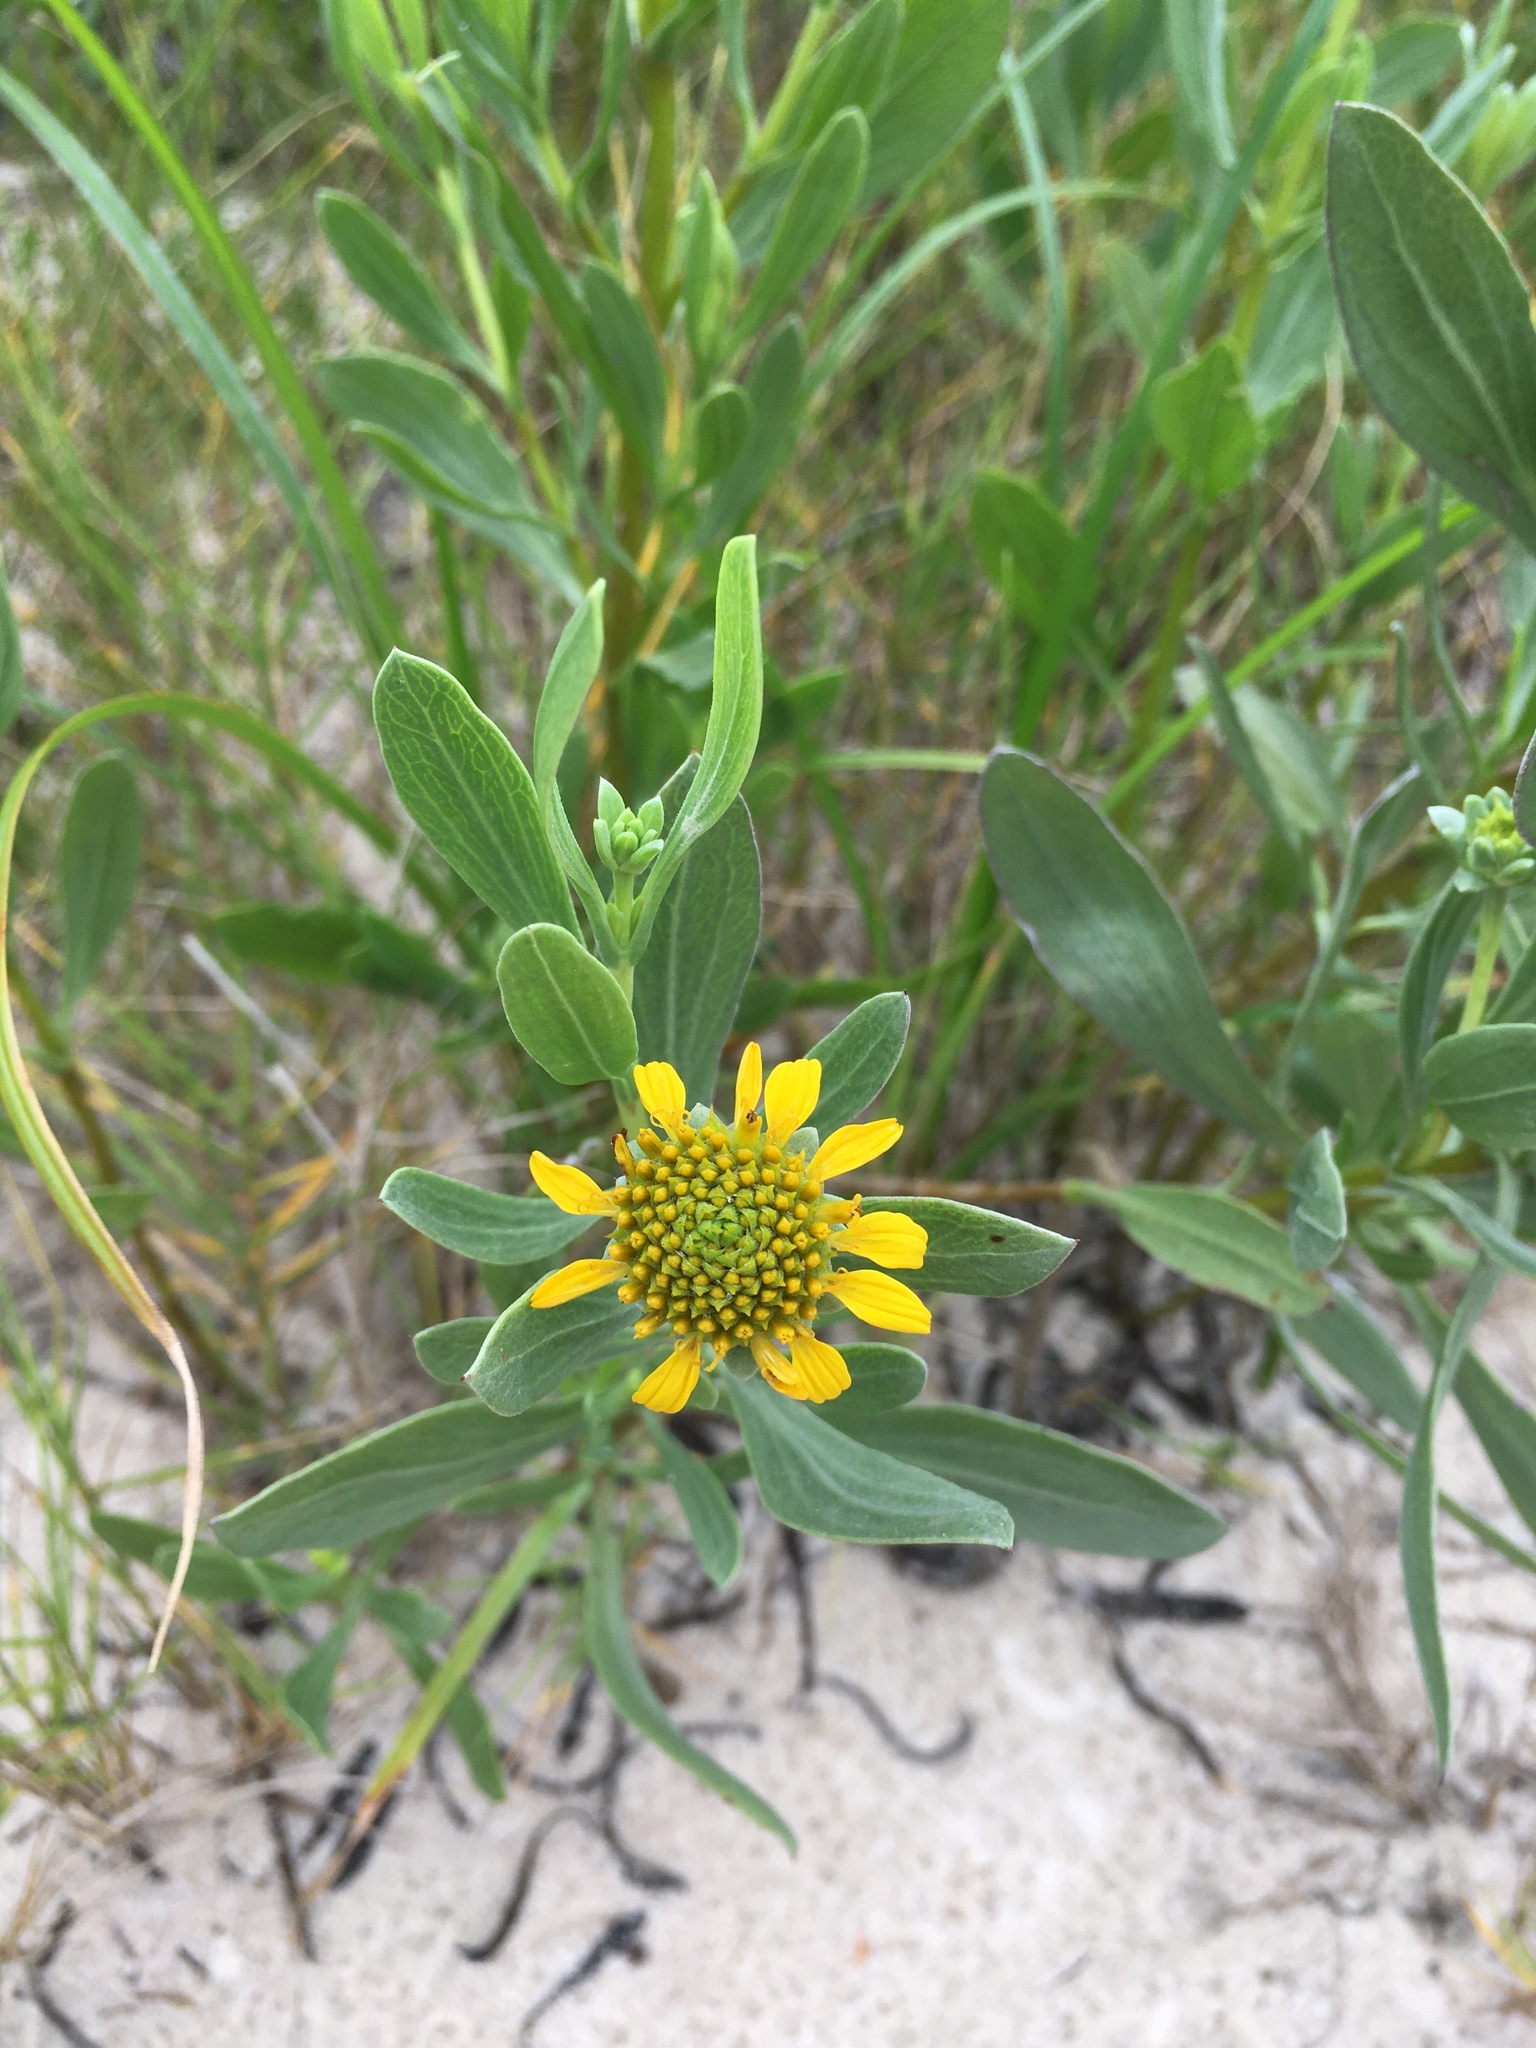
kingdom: Plantae
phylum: Tracheophyta
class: Magnoliopsida
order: Asterales
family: Asteraceae
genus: Borrichia
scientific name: Borrichia frutescens
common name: Sea oxeye
